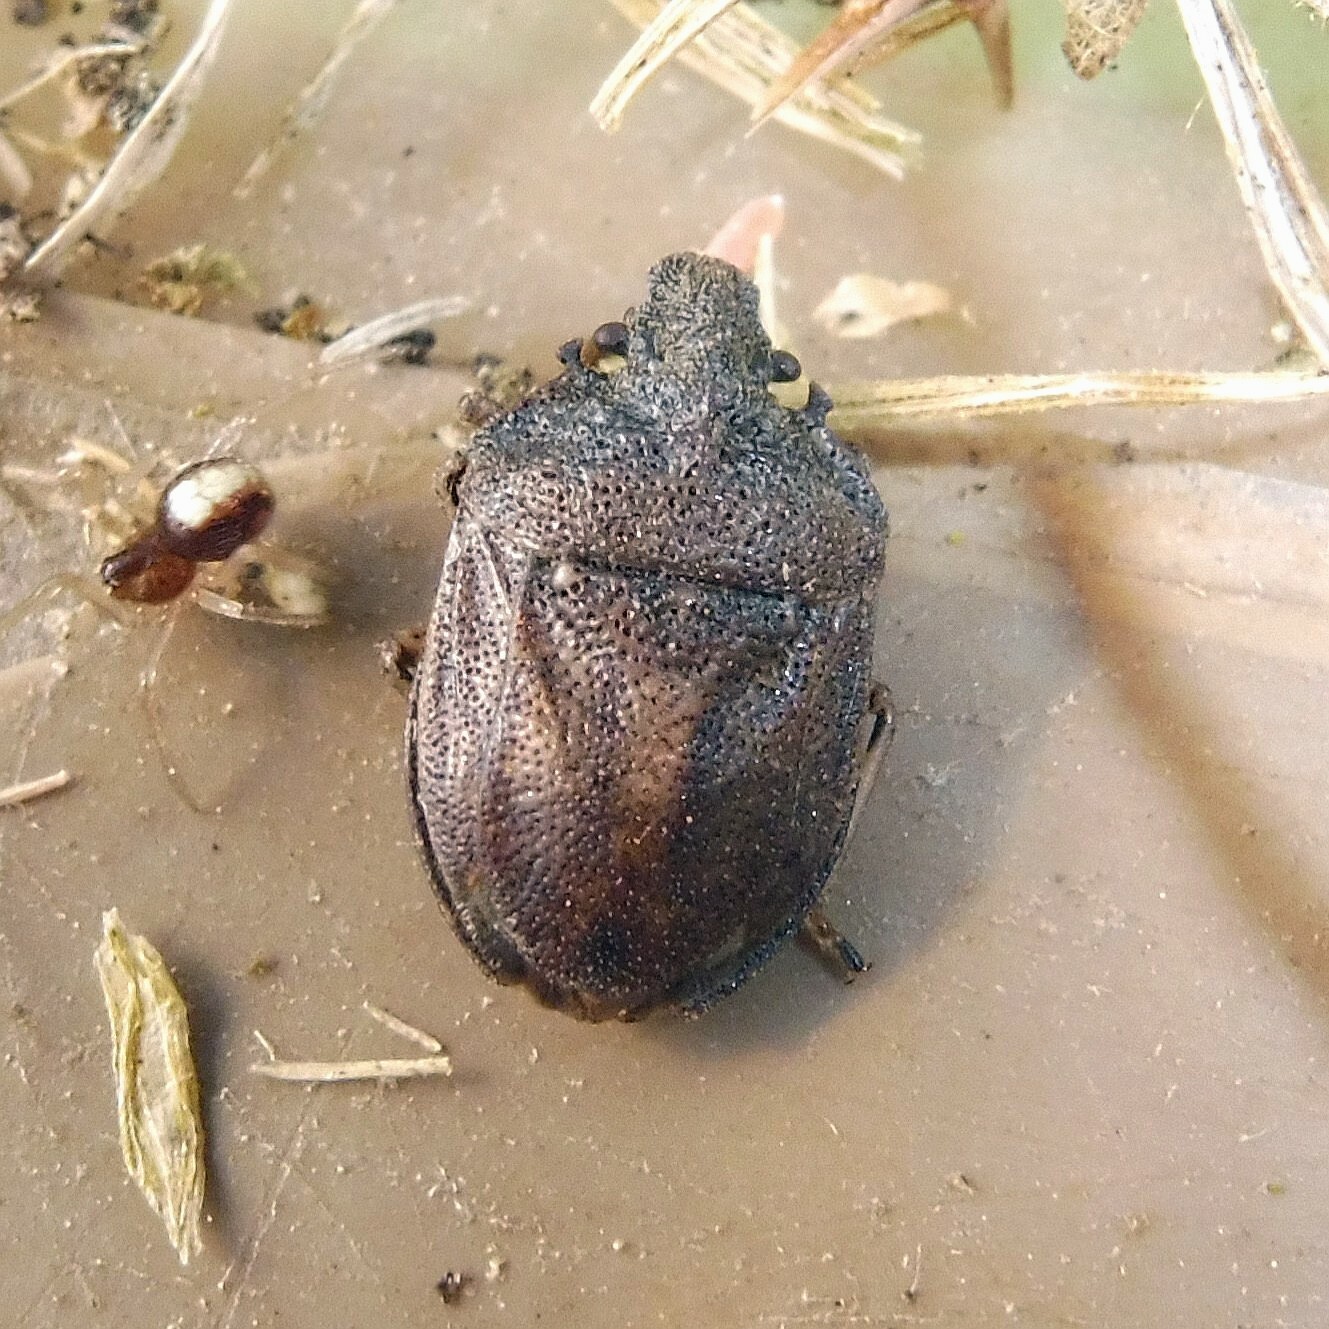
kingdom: Animalia
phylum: Arthropoda
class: Insecta
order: Hemiptera
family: Pentatomidae
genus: Podops
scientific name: Podops inunctus
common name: Turtle bug
